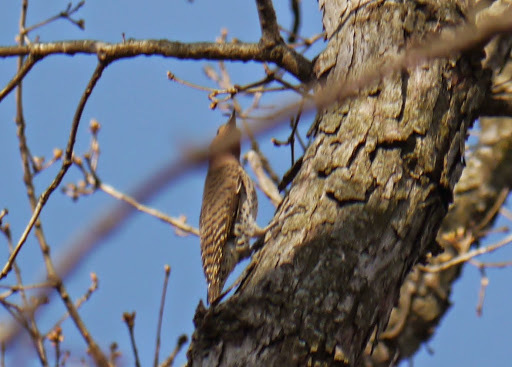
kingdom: Animalia
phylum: Chordata
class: Aves
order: Piciformes
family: Picidae
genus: Colaptes
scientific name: Colaptes auratus
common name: Northern flicker
